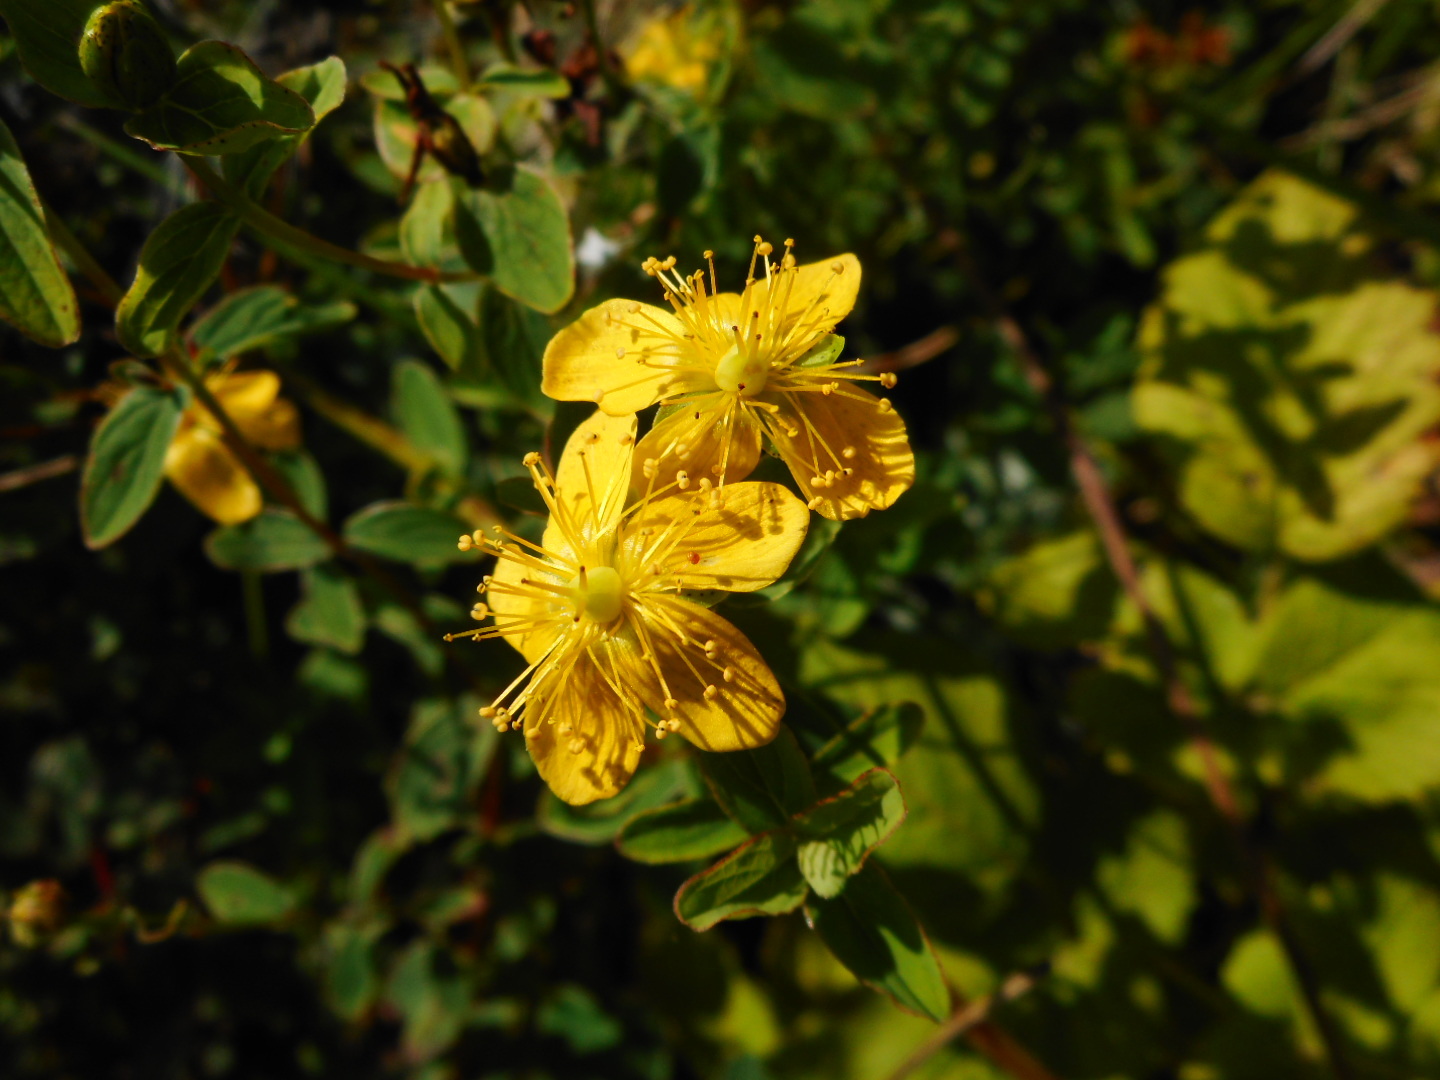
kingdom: Plantae
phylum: Tracheophyta
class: Magnoliopsida
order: Malpighiales
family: Hypericaceae
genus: Hypericum
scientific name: Hypericum maculatum
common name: Imperforate st. john's-wort
